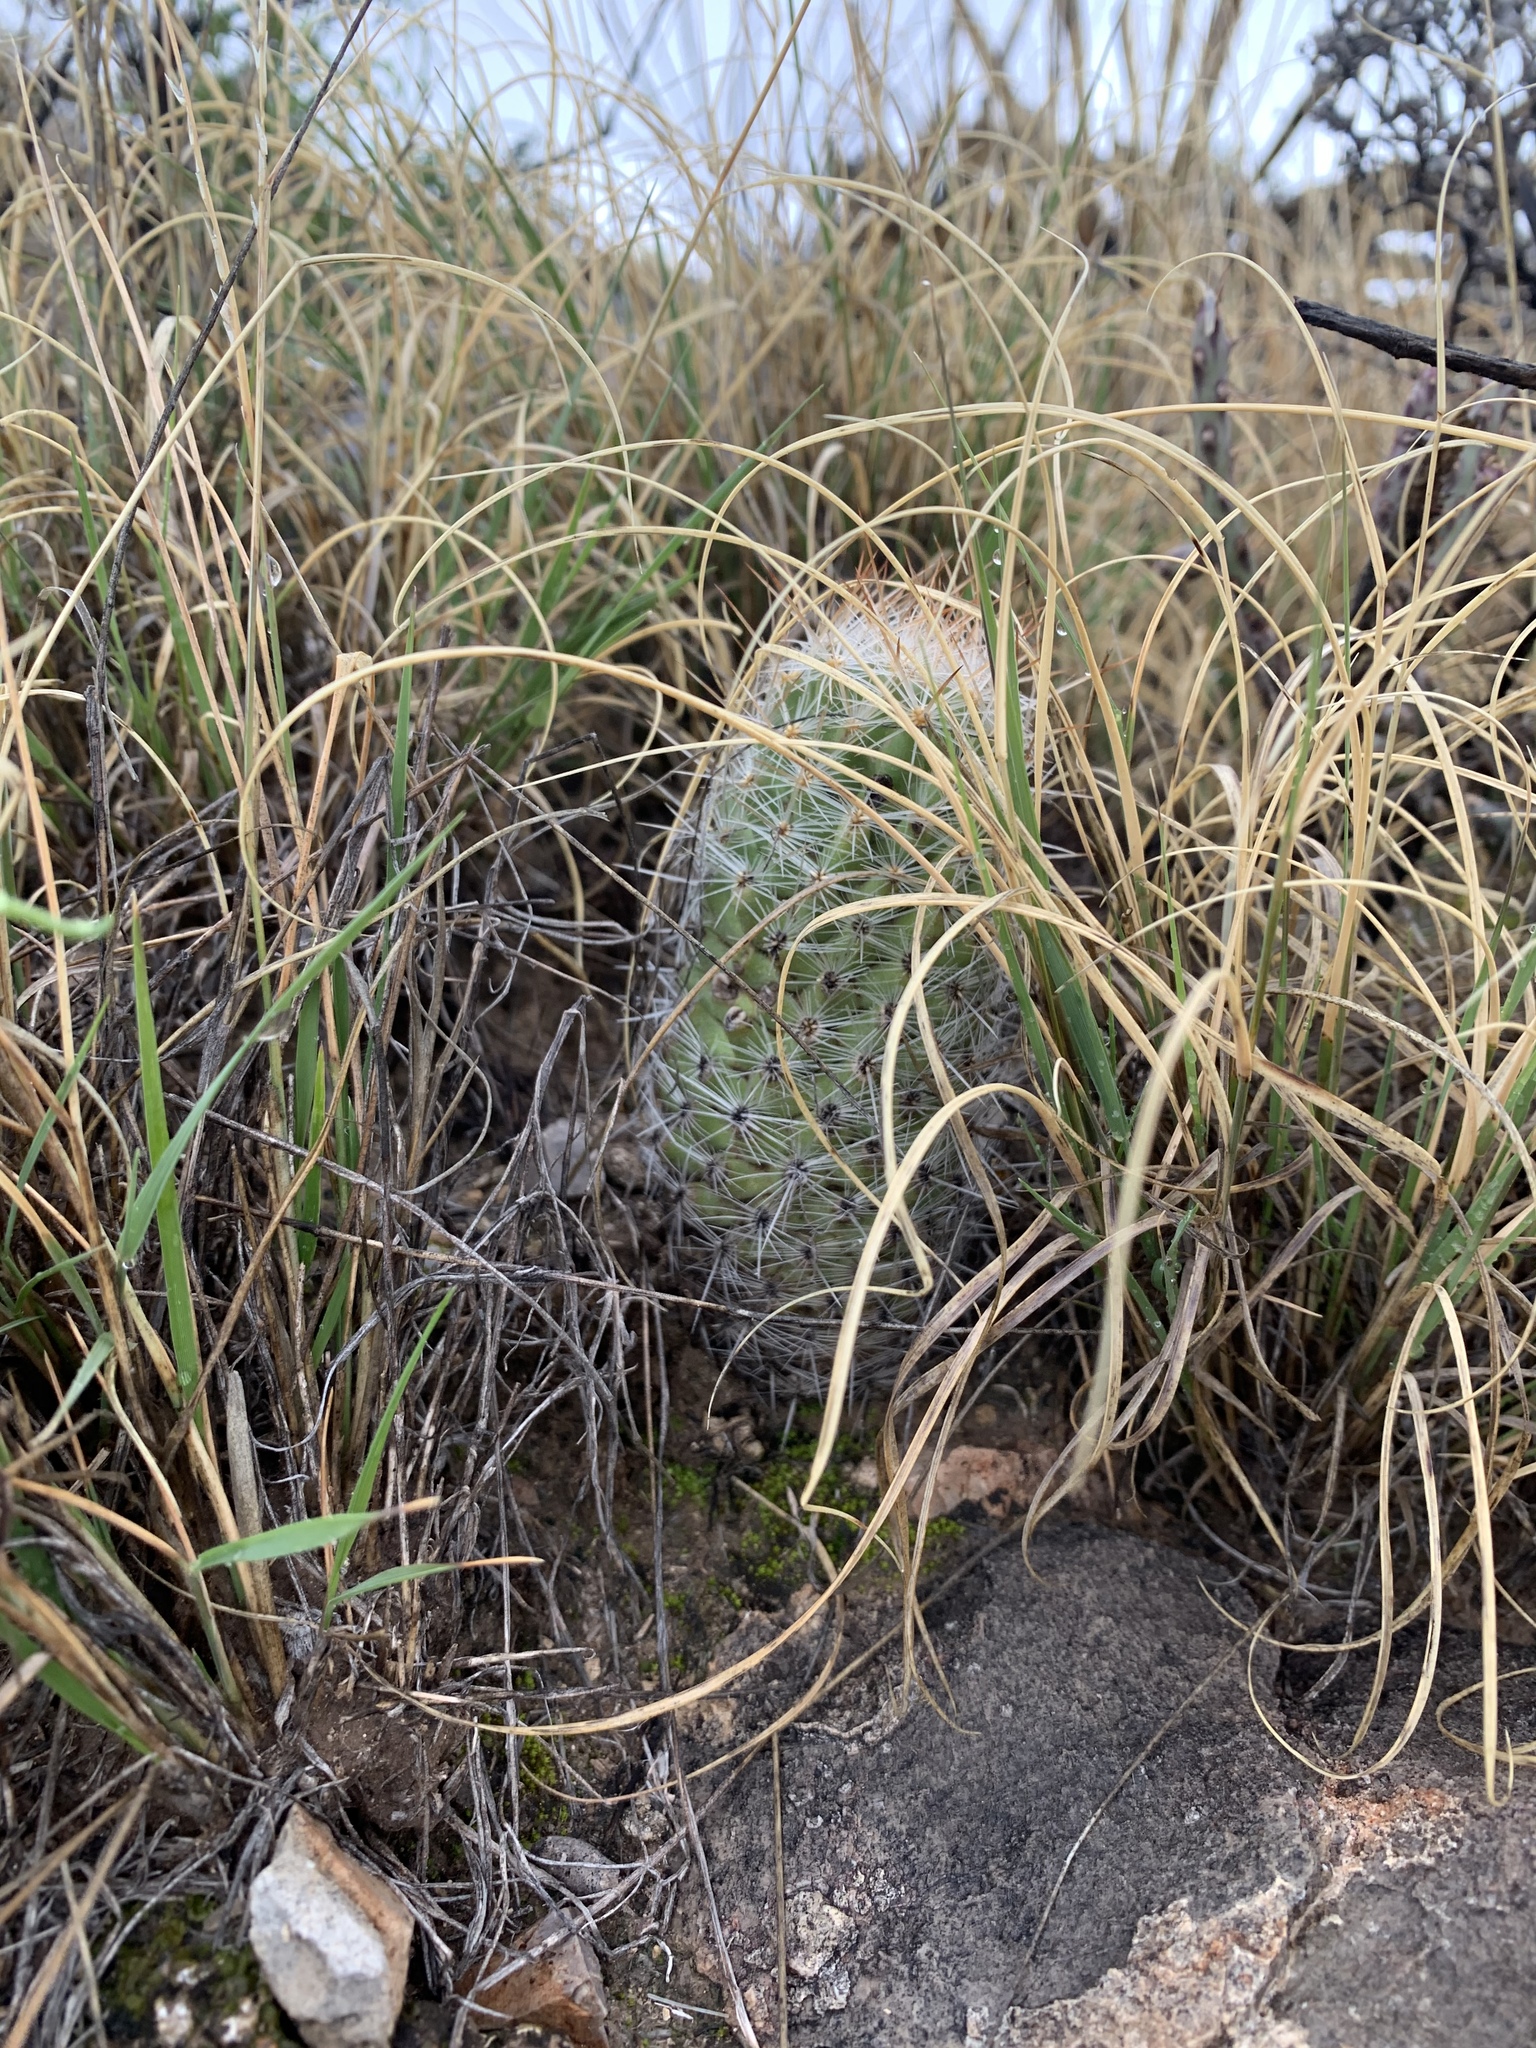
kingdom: Plantae
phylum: Tracheophyta
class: Magnoliopsida
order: Caryophyllales
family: Cactaceae
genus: Pelecyphora
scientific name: Pelecyphora tuberculosa
